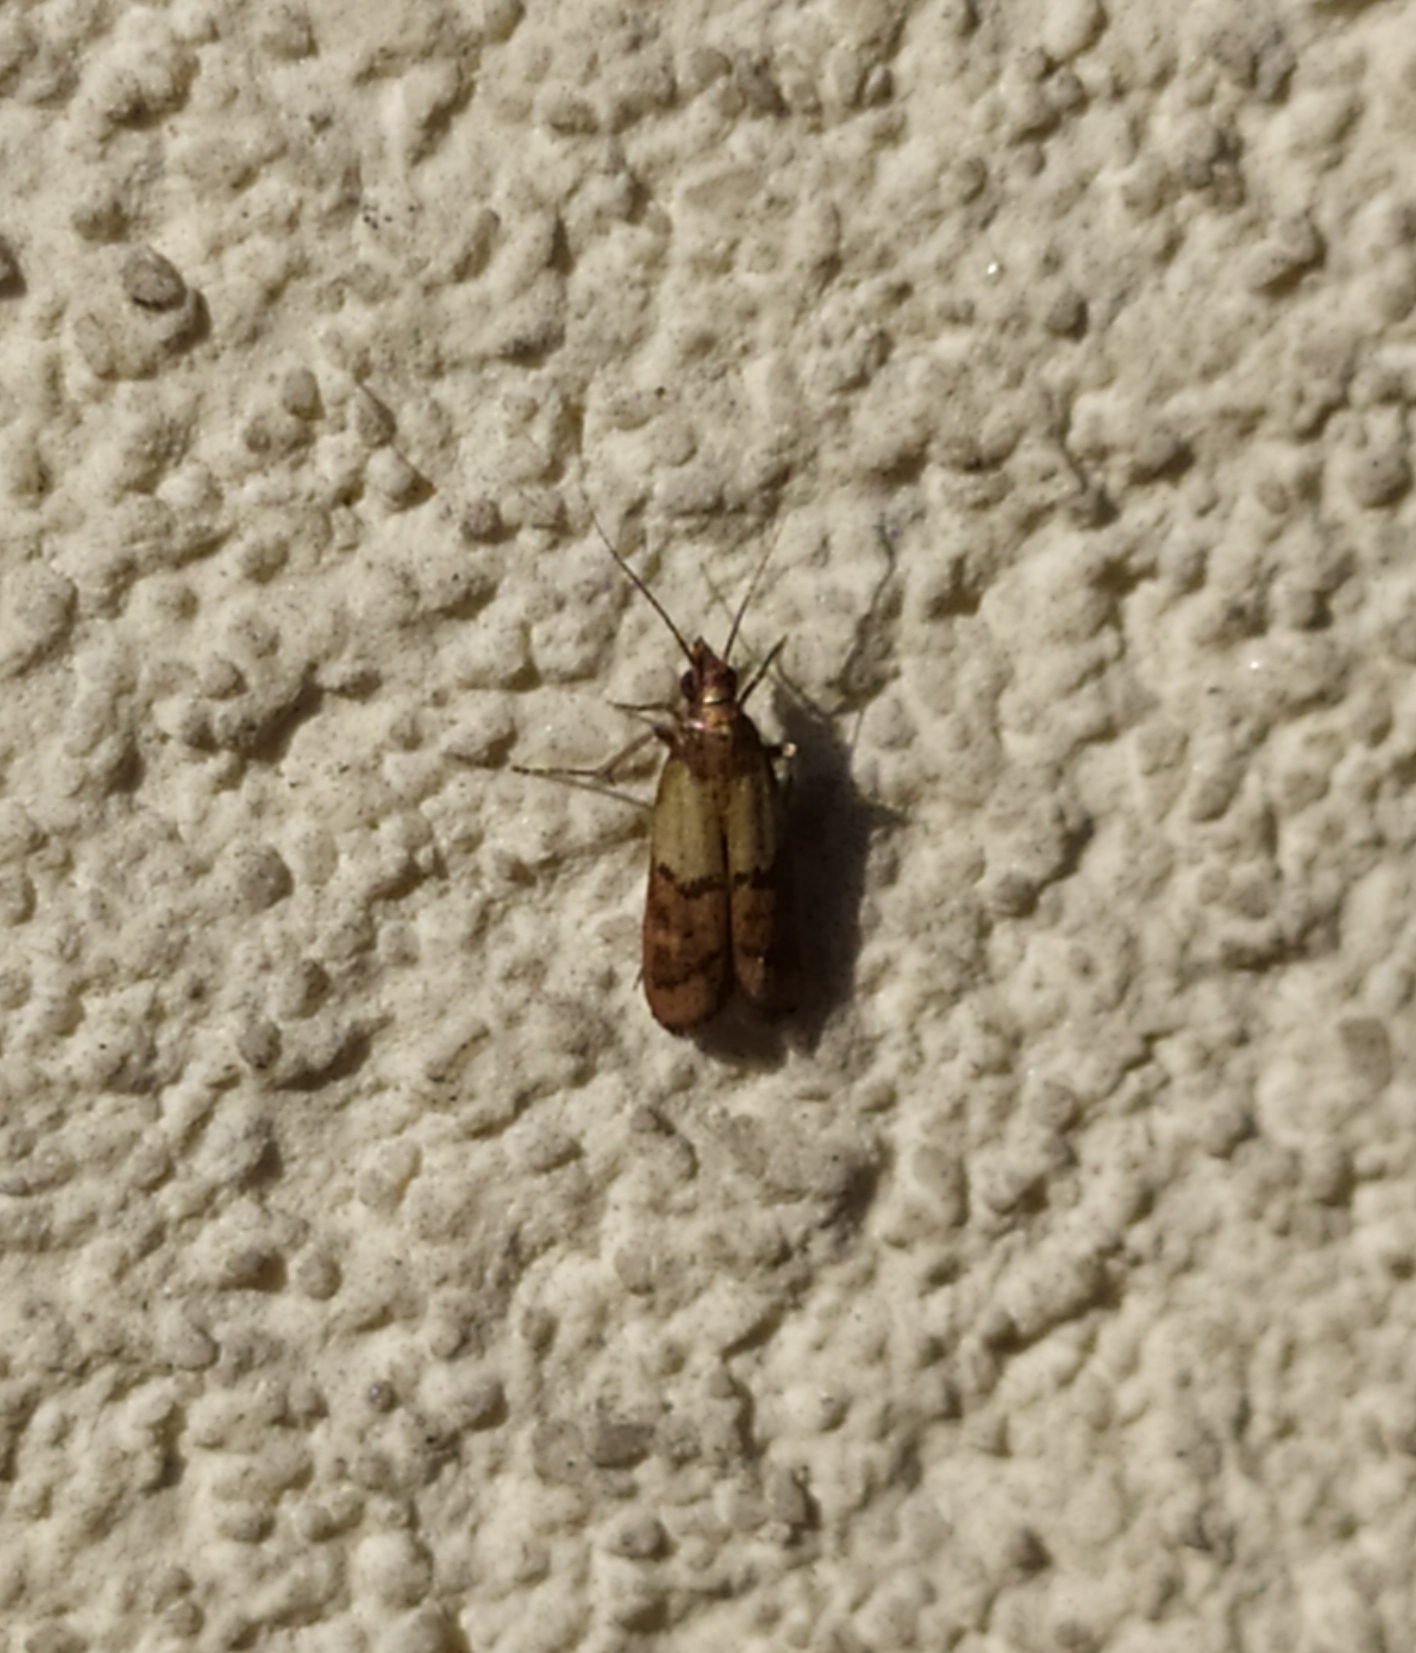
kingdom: Animalia
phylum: Arthropoda
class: Insecta
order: Lepidoptera
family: Pyralidae
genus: Plodia
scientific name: Plodia interpunctella
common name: Indian meal moth
